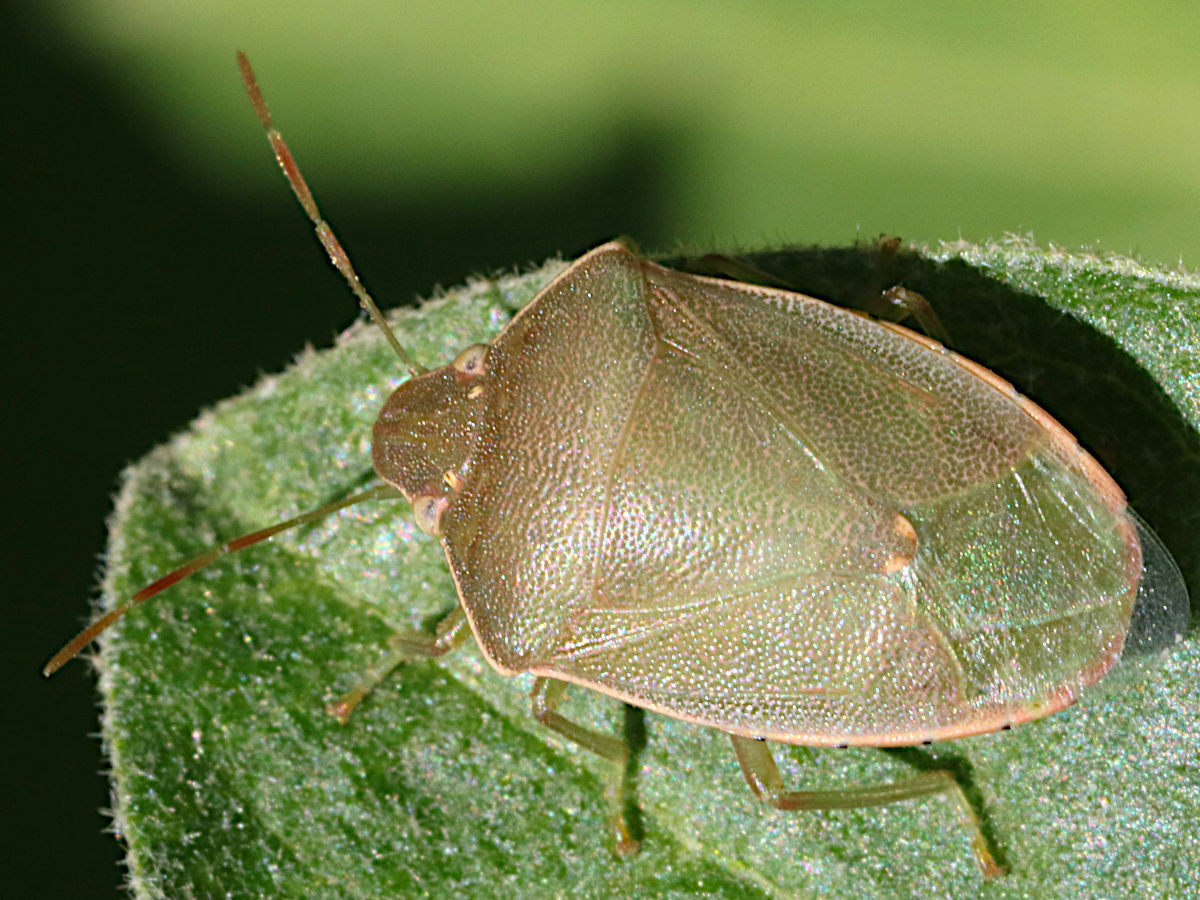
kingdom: Animalia
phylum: Arthropoda
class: Insecta
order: Hemiptera
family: Pentatomidae
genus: Acrosternum
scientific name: Acrosternum heegeri
